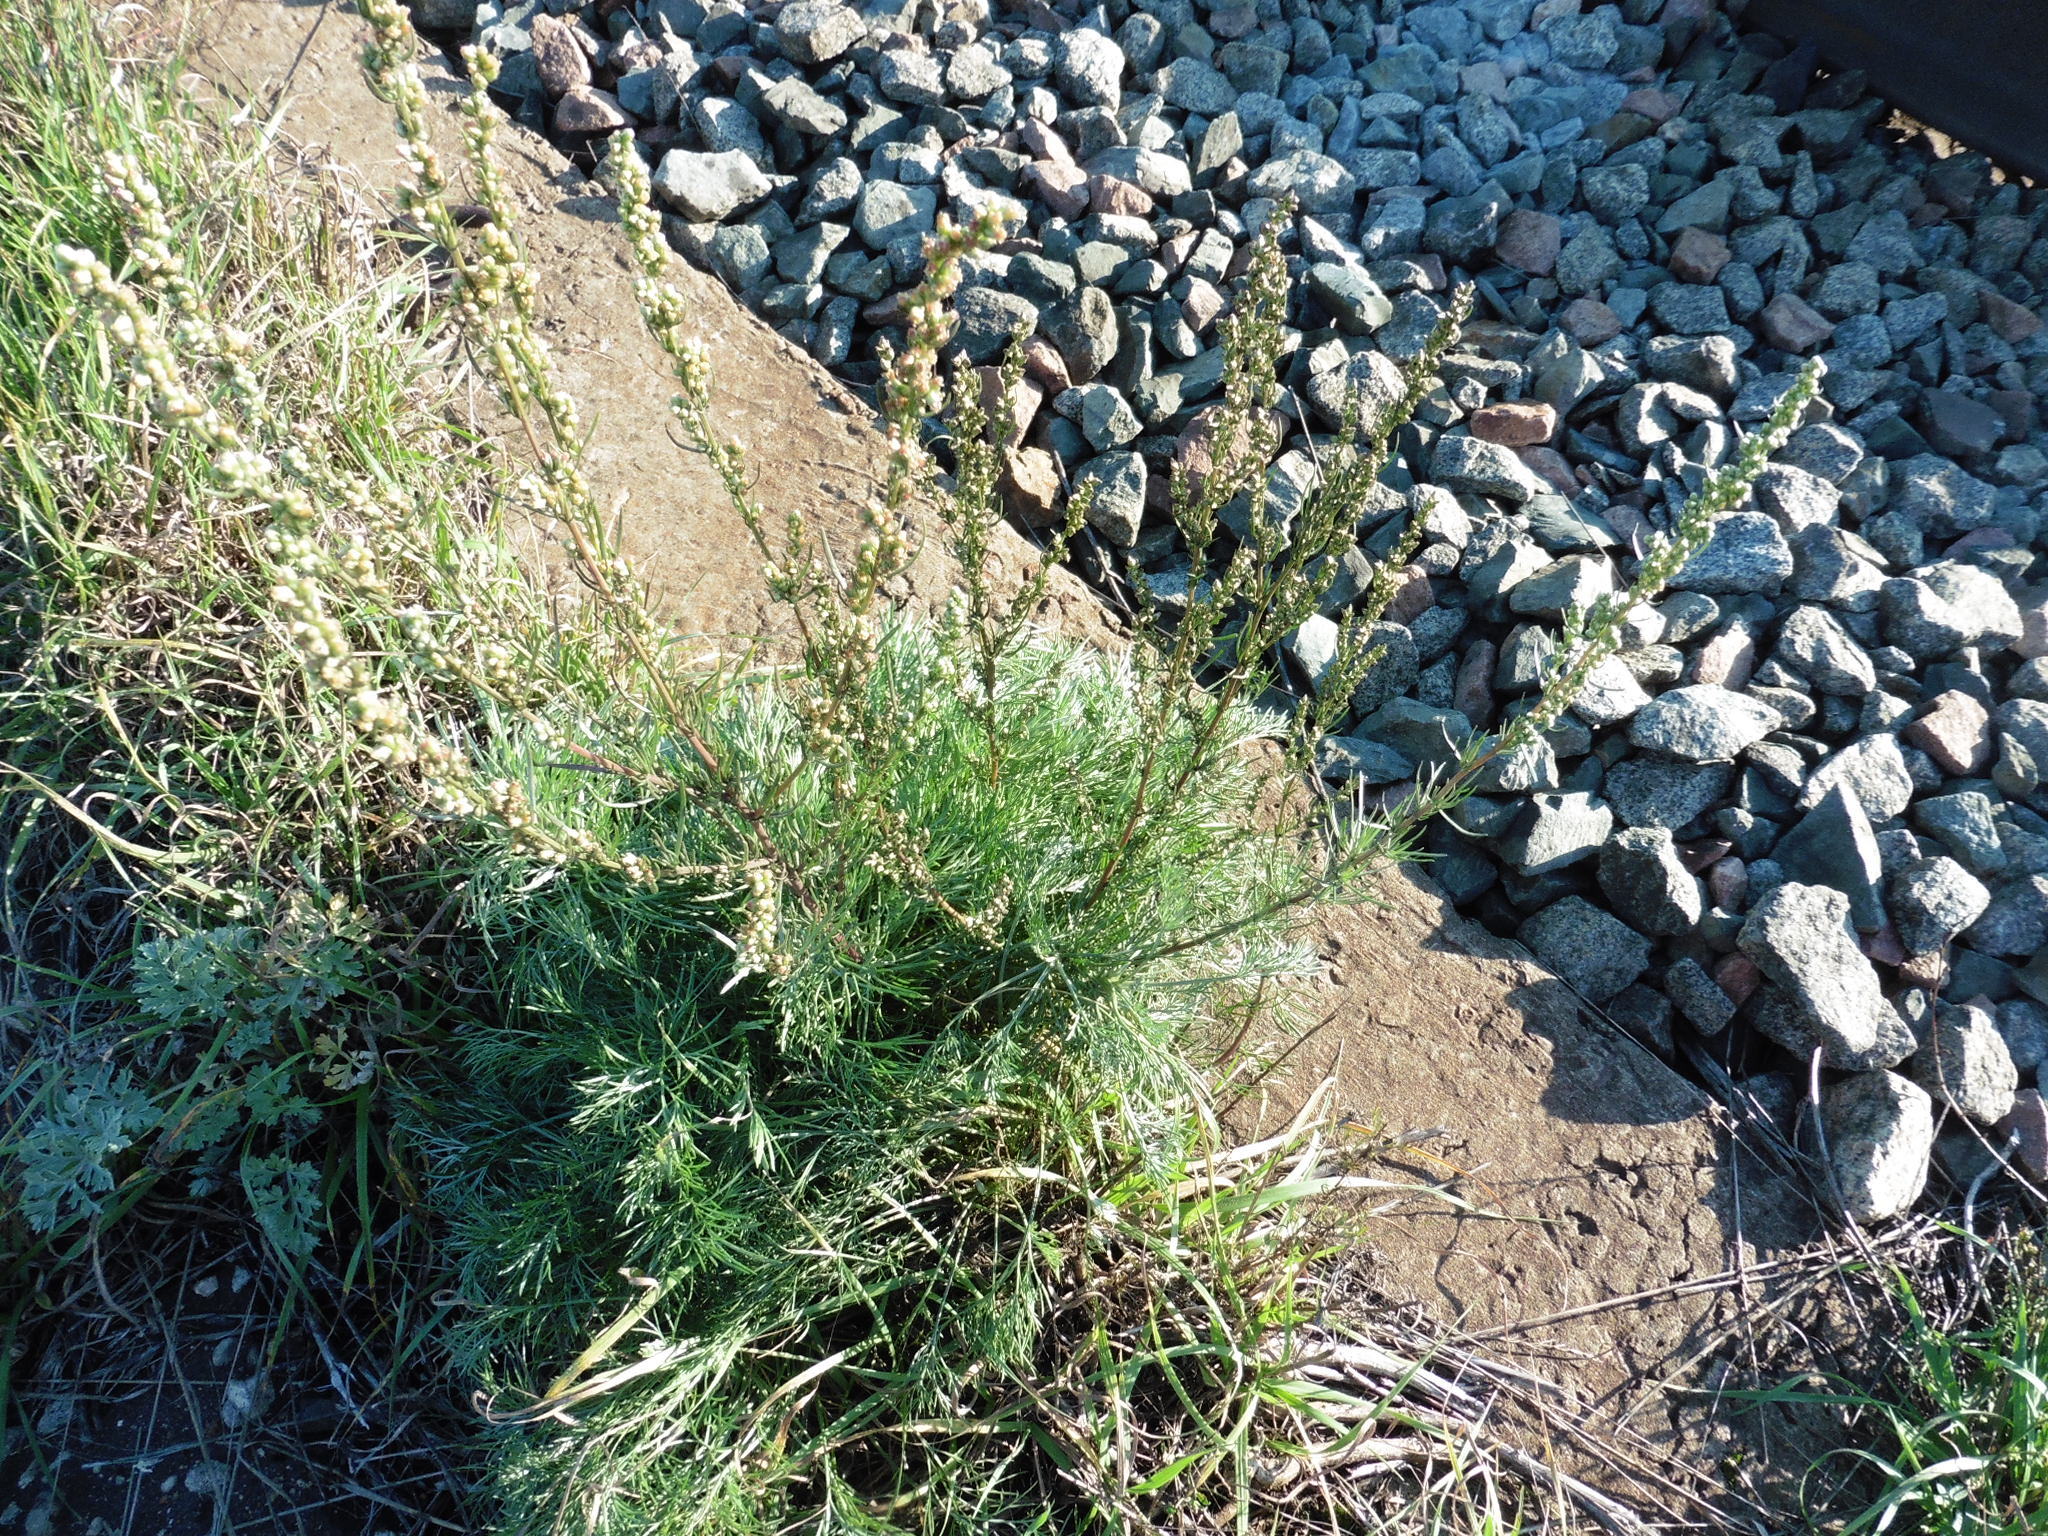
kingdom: Plantae
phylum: Tracheophyta
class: Magnoliopsida
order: Asterales
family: Asteraceae
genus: Artemisia
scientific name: Artemisia campestris
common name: Field wormwood
